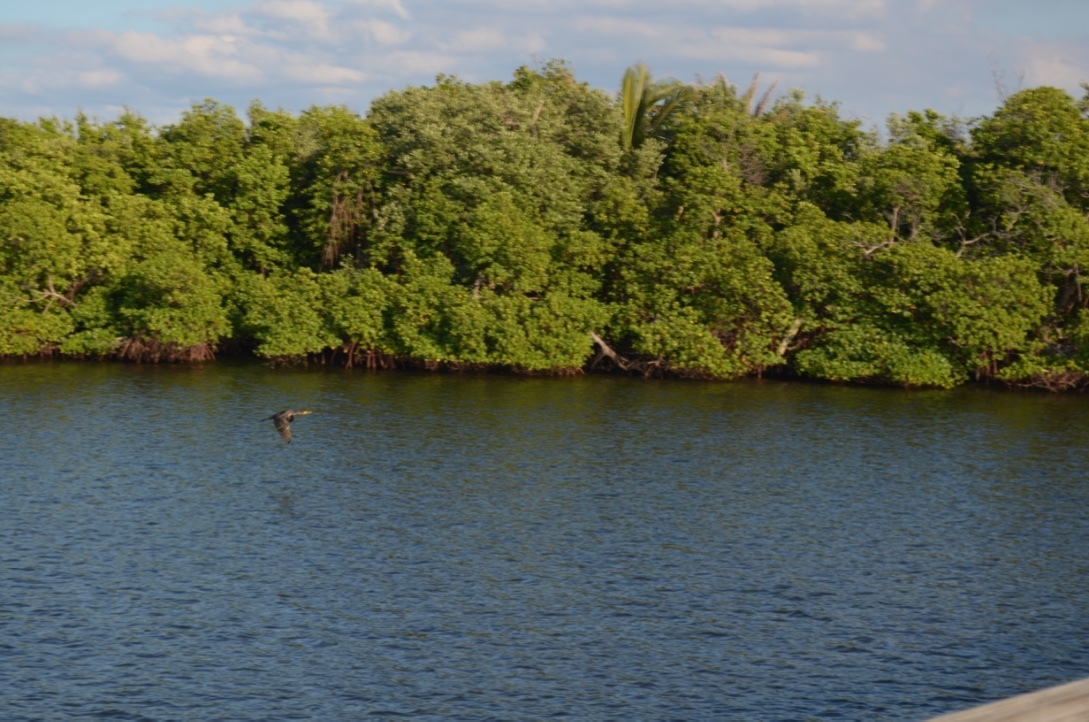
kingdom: Animalia
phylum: Chordata
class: Aves
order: Suliformes
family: Phalacrocoracidae
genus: Phalacrocorax
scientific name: Phalacrocorax auritus
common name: Double-crested cormorant
